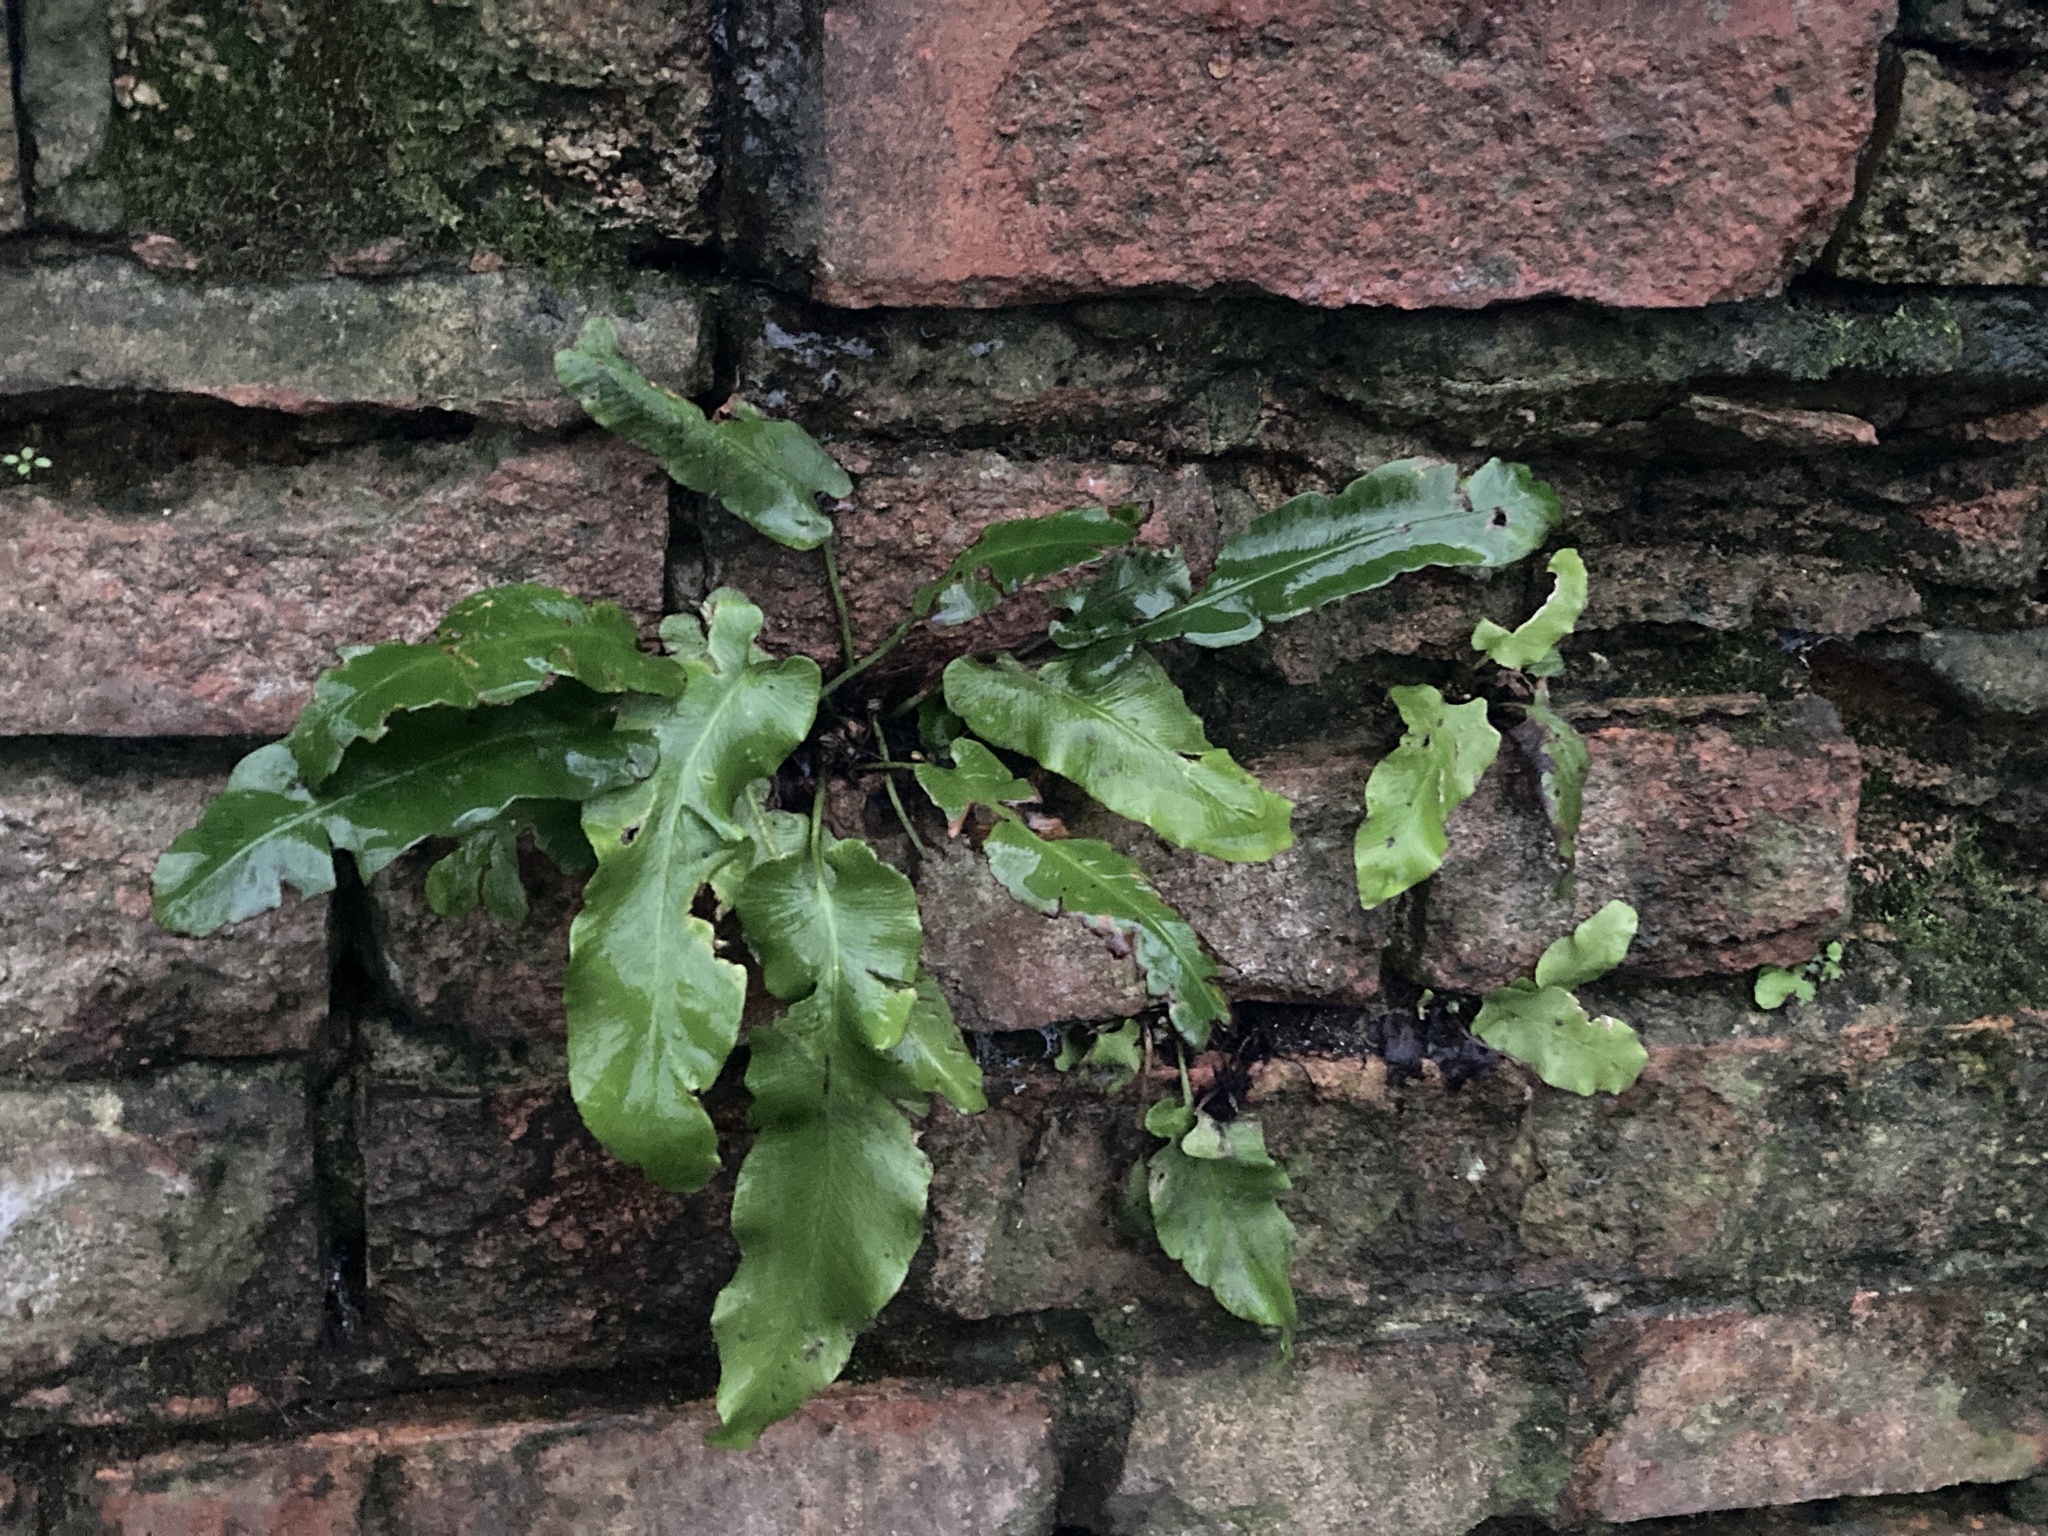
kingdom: Plantae
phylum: Tracheophyta
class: Polypodiopsida
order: Polypodiales
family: Aspleniaceae
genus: Asplenium
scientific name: Asplenium scolopendrium
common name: Hart's-tongue fern
